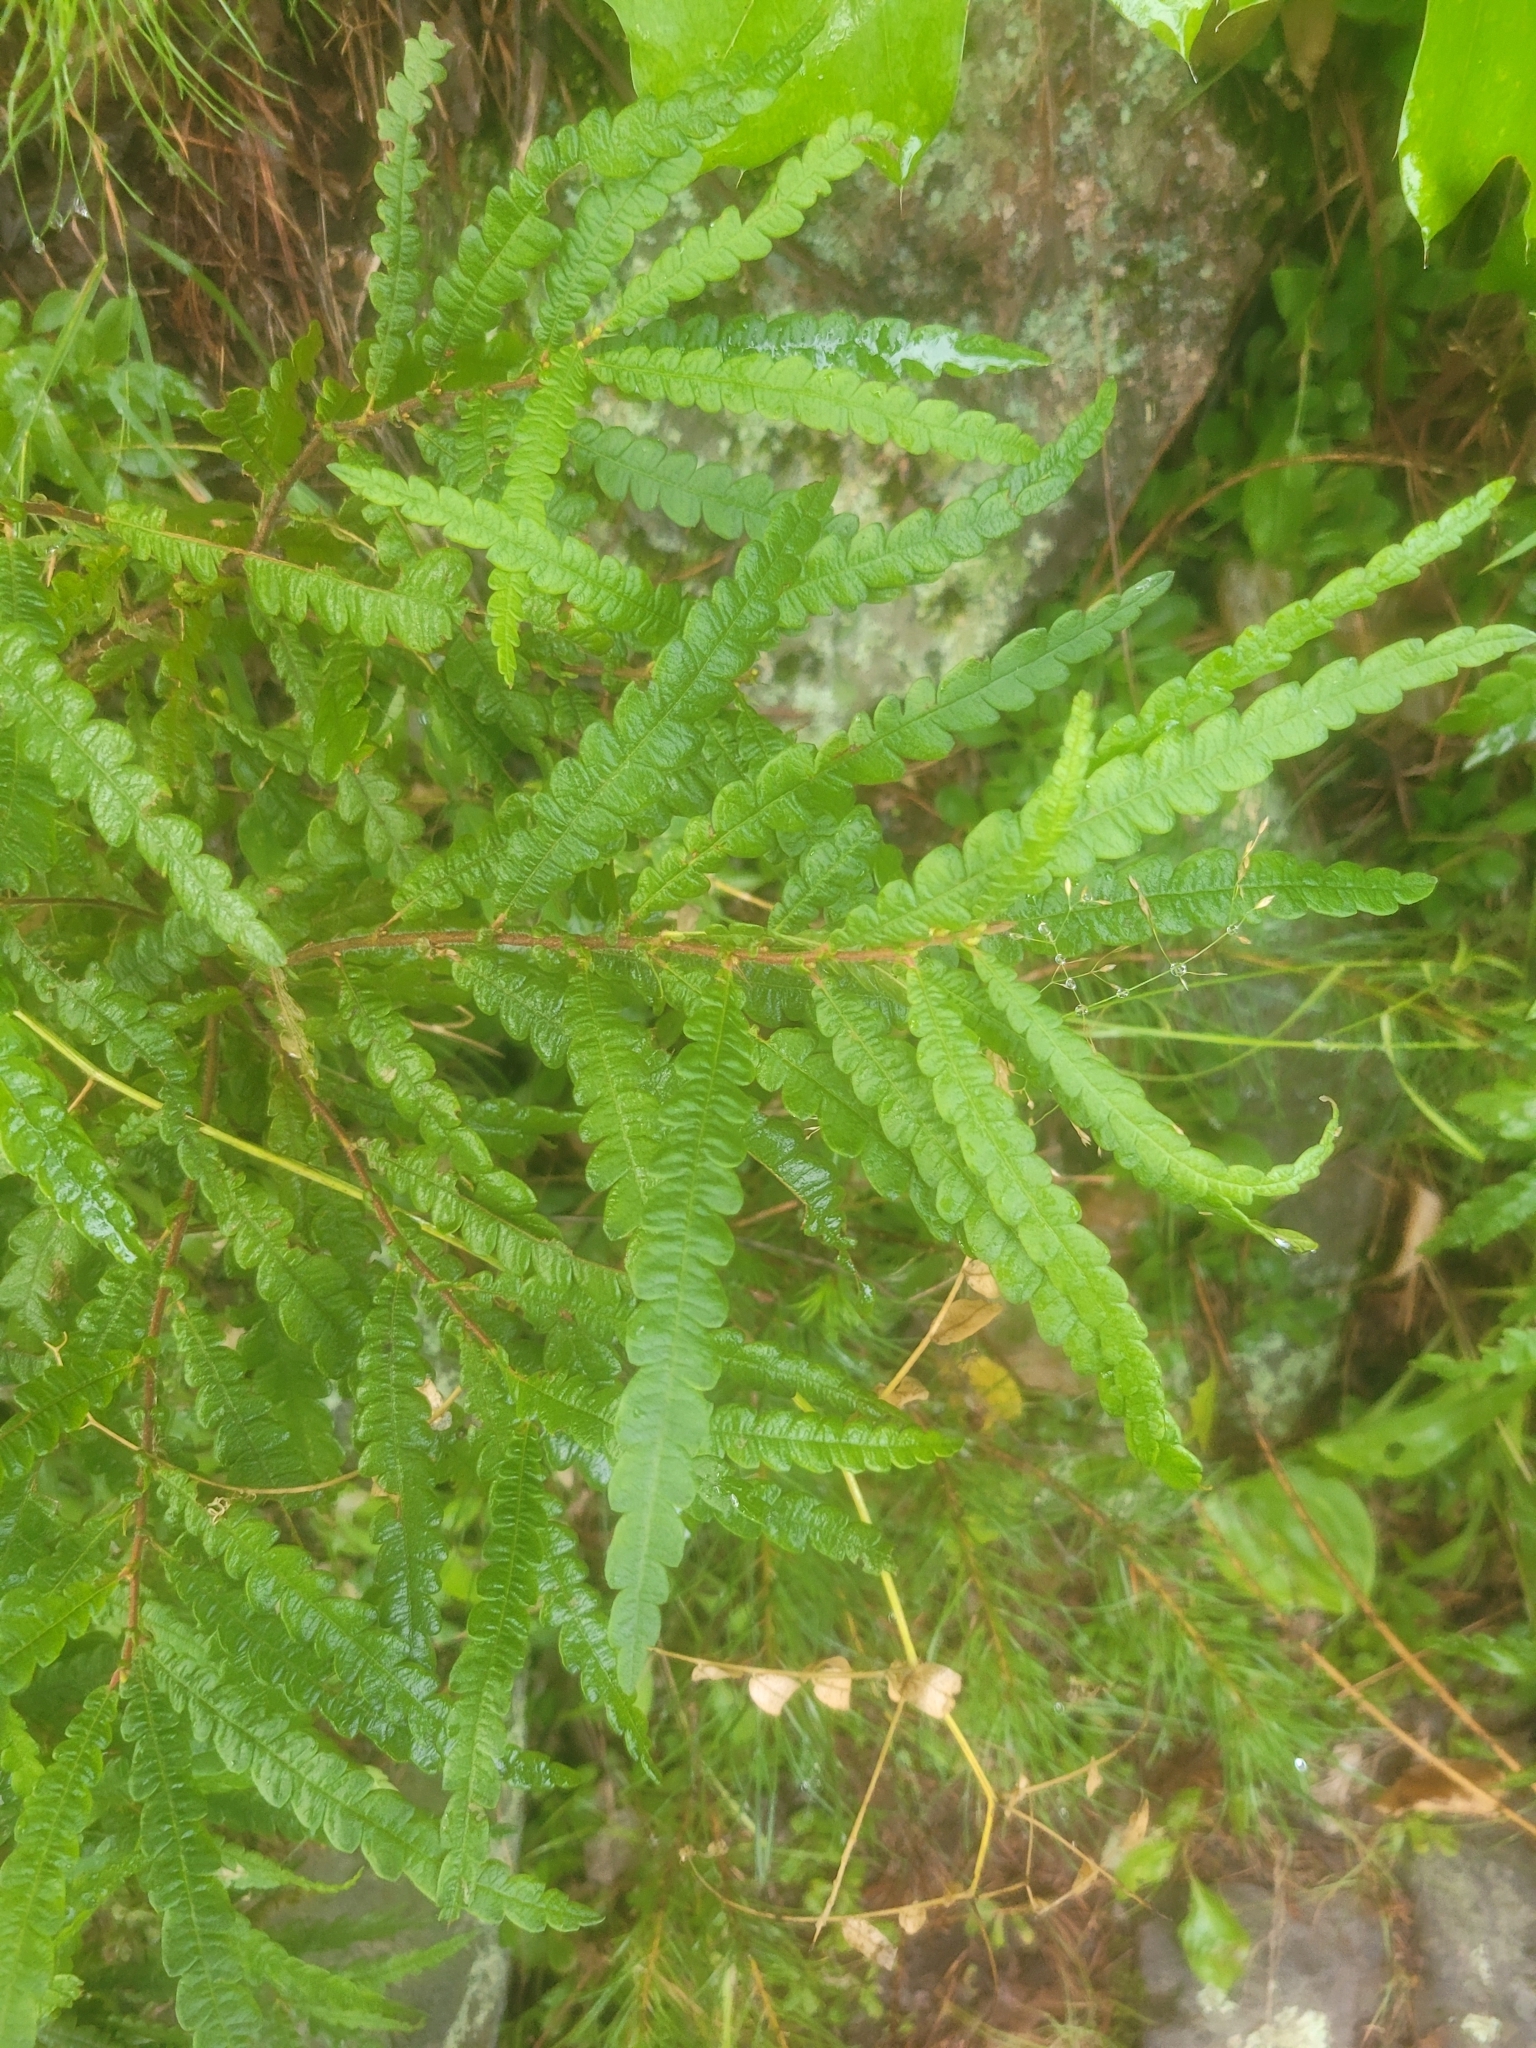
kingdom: Plantae
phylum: Tracheophyta
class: Magnoliopsida
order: Fagales
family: Myricaceae
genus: Comptonia
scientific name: Comptonia peregrina
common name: Sweet-fern
